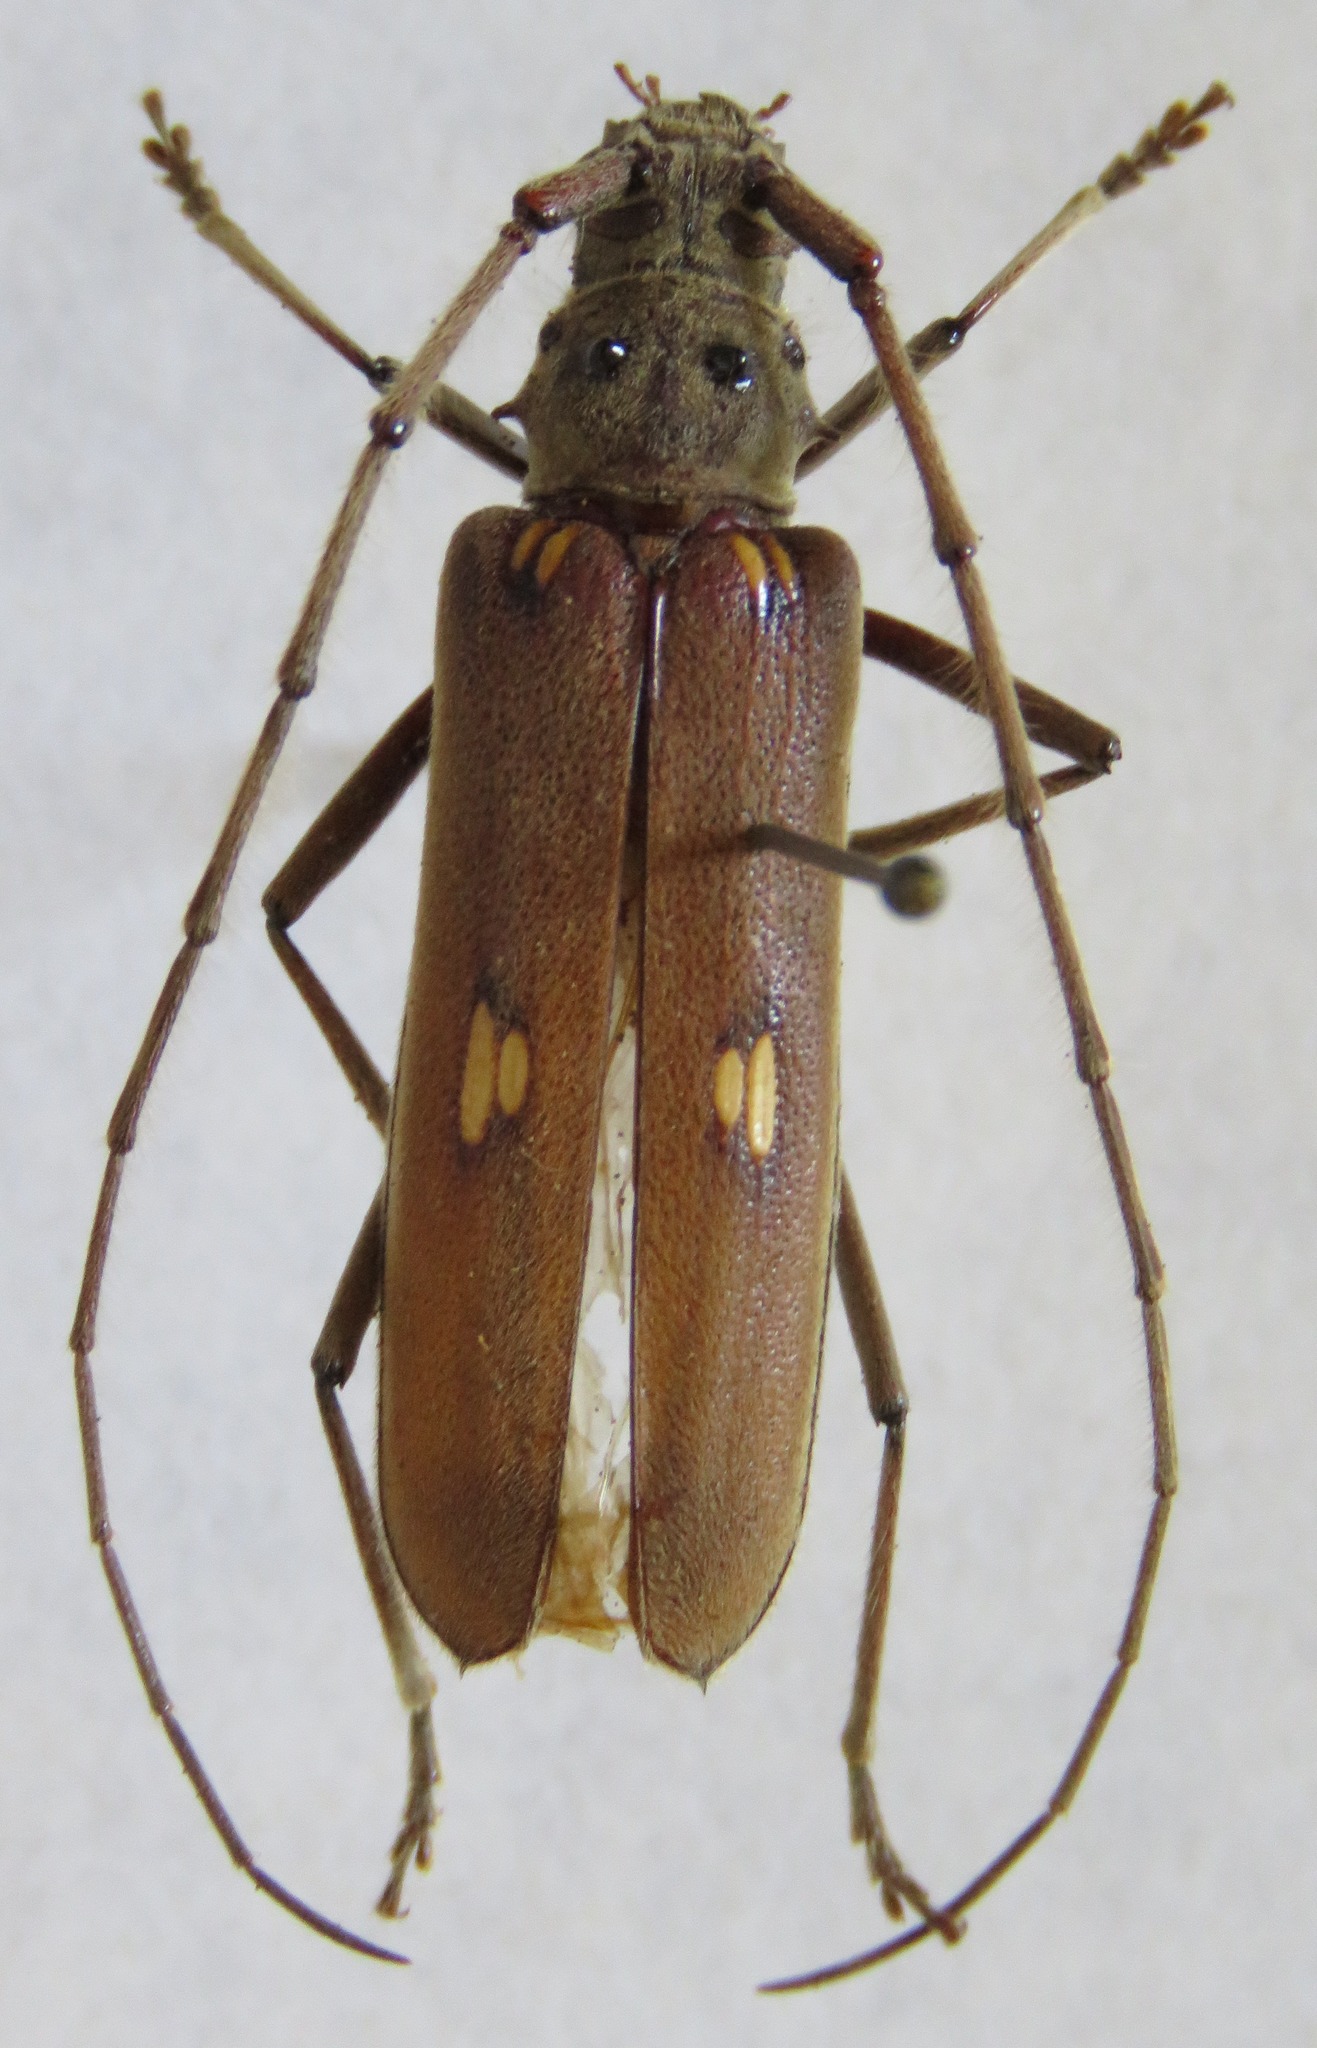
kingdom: Animalia
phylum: Arthropoda
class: Insecta
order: Coleoptera
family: Cerambycidae
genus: Pantomallus
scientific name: Pantomallus fuligineus
